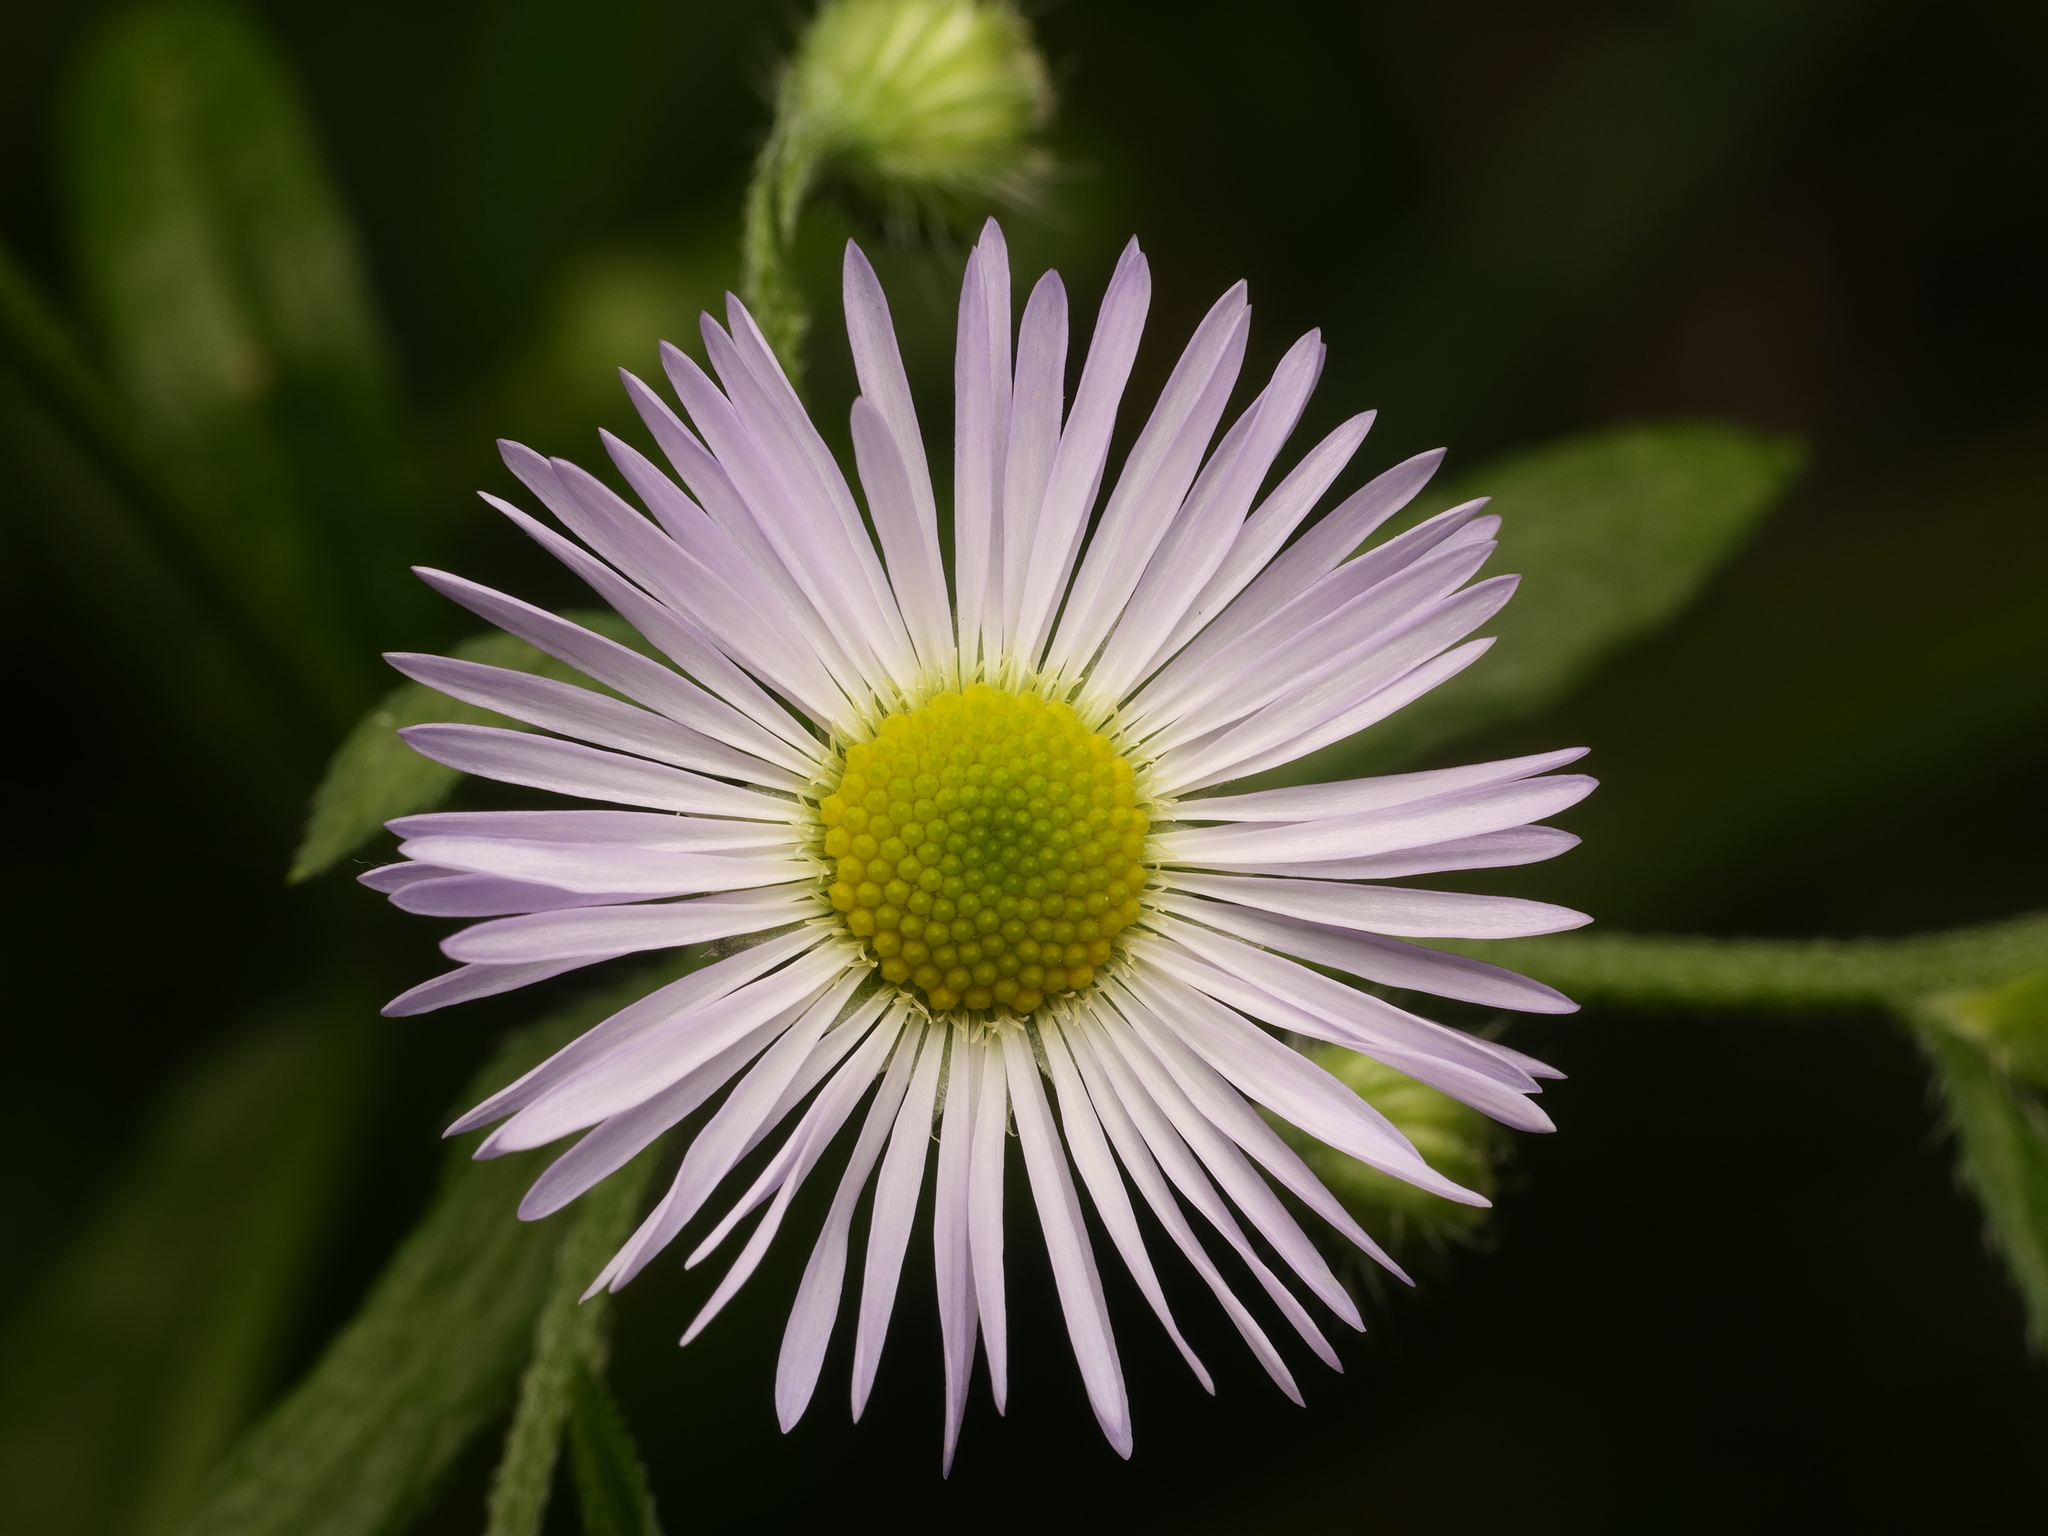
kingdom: Plantae
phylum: Tracheophyta
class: Magnoliopsida
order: Asterales
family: Asteraceae
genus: Erigeron
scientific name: Erigeron annuus
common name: Tall fleabane
